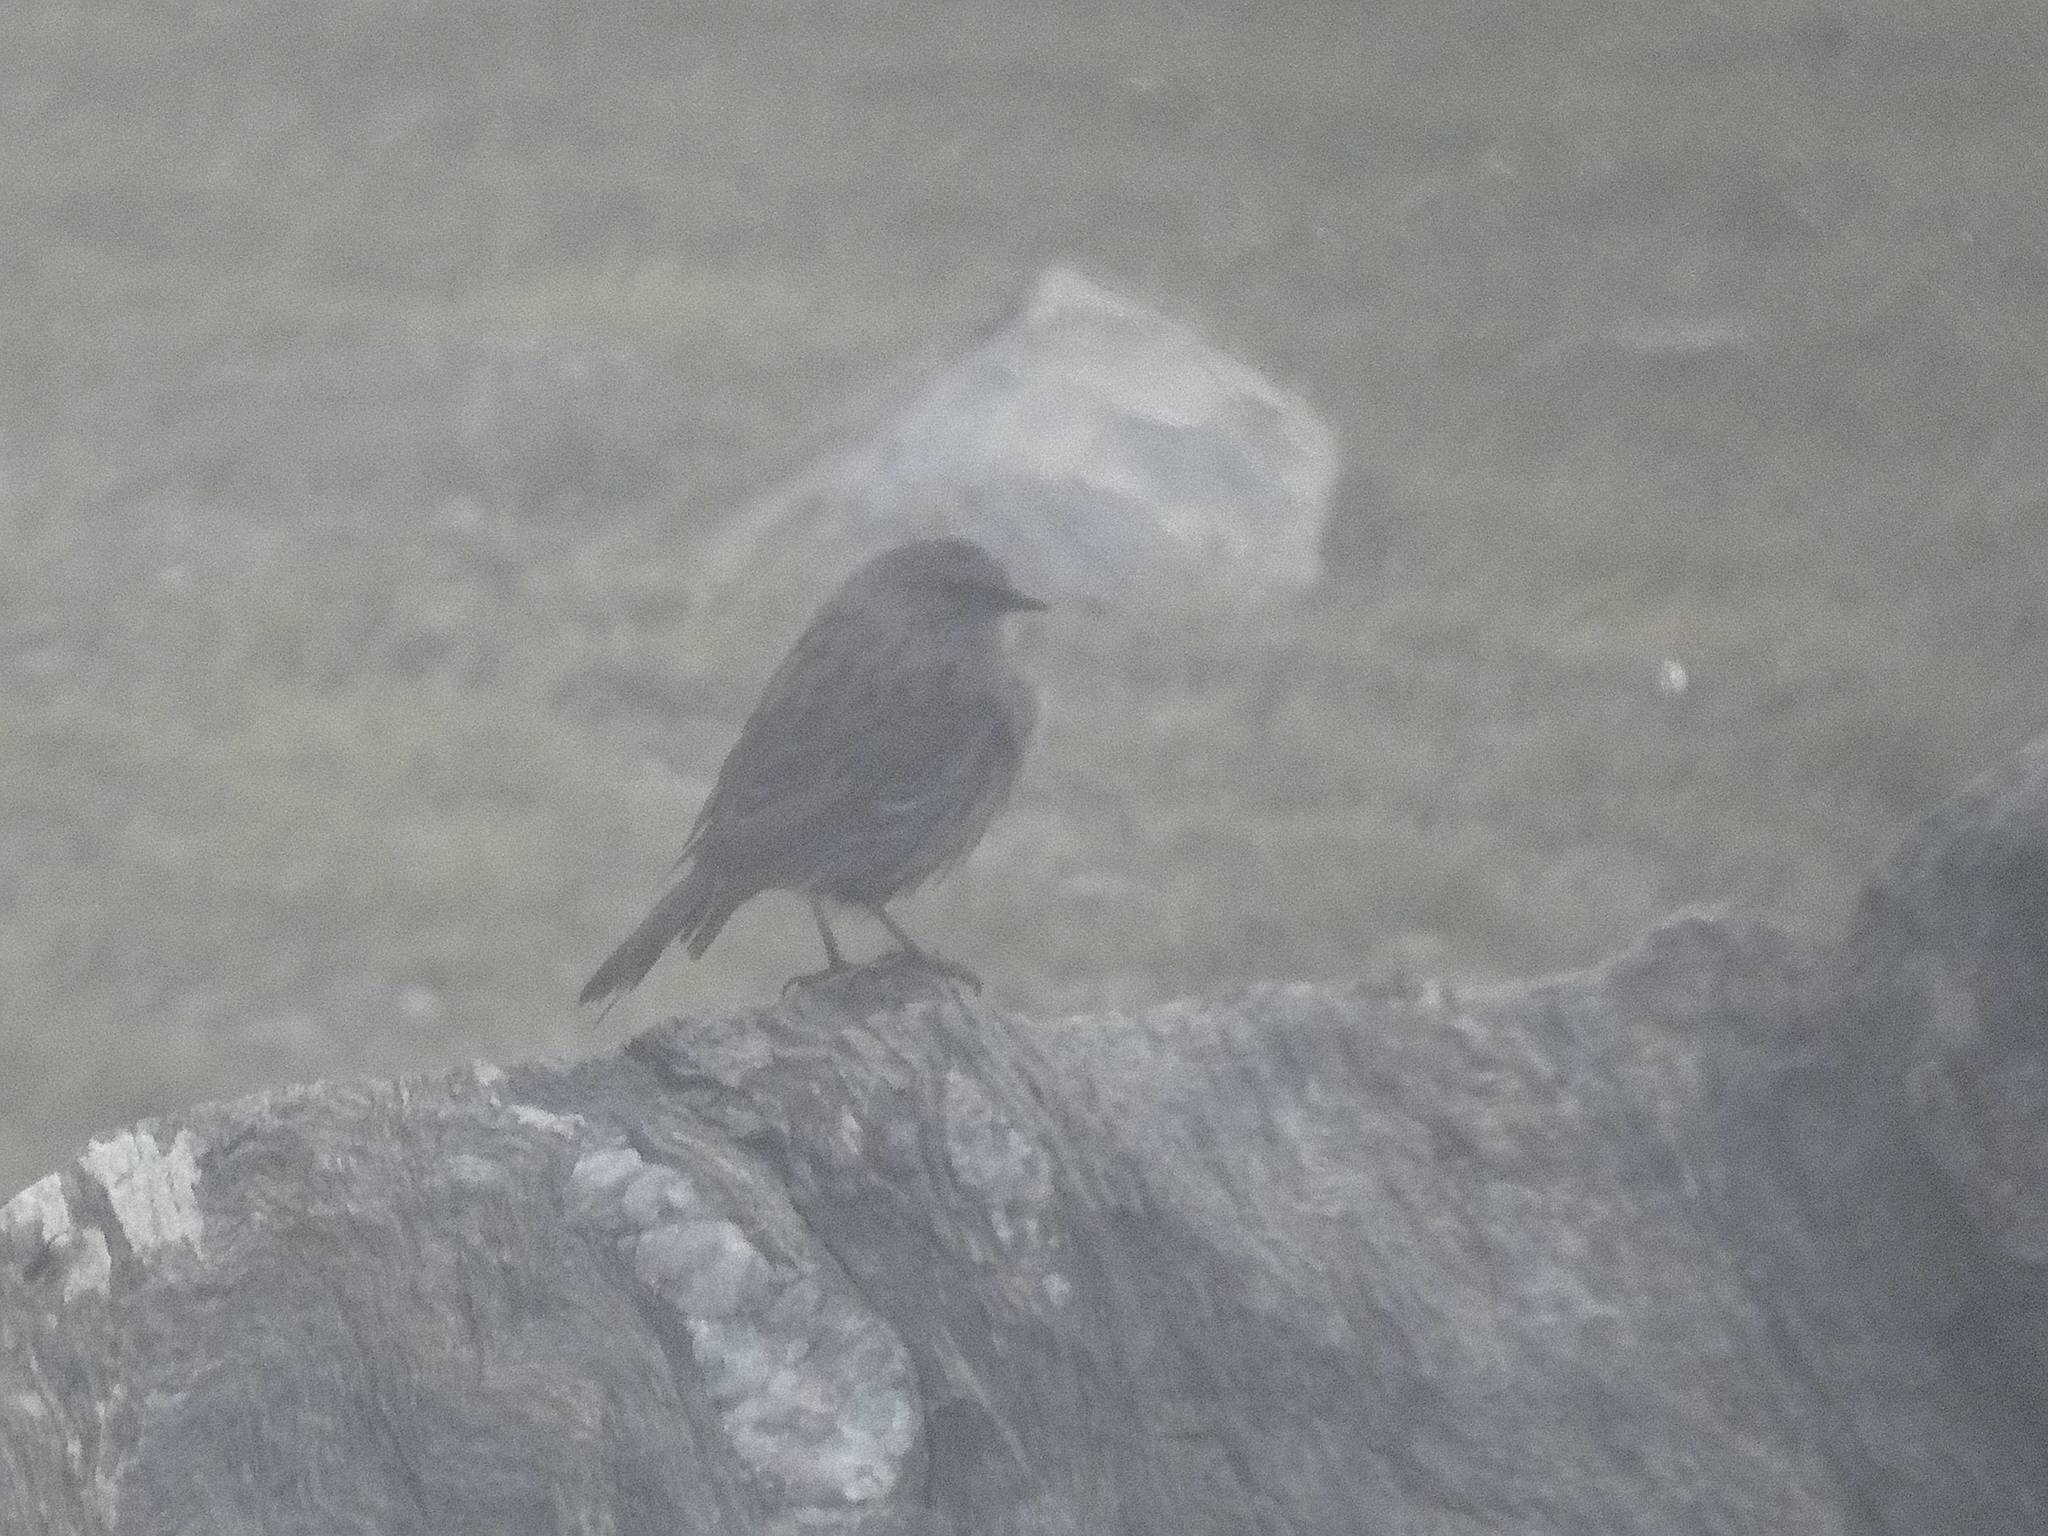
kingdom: Animalia
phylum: Chordata
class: Aves
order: Passeriformes
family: Prunellidae
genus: Prunella
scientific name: Prunella collaris
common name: Alpine accentor
